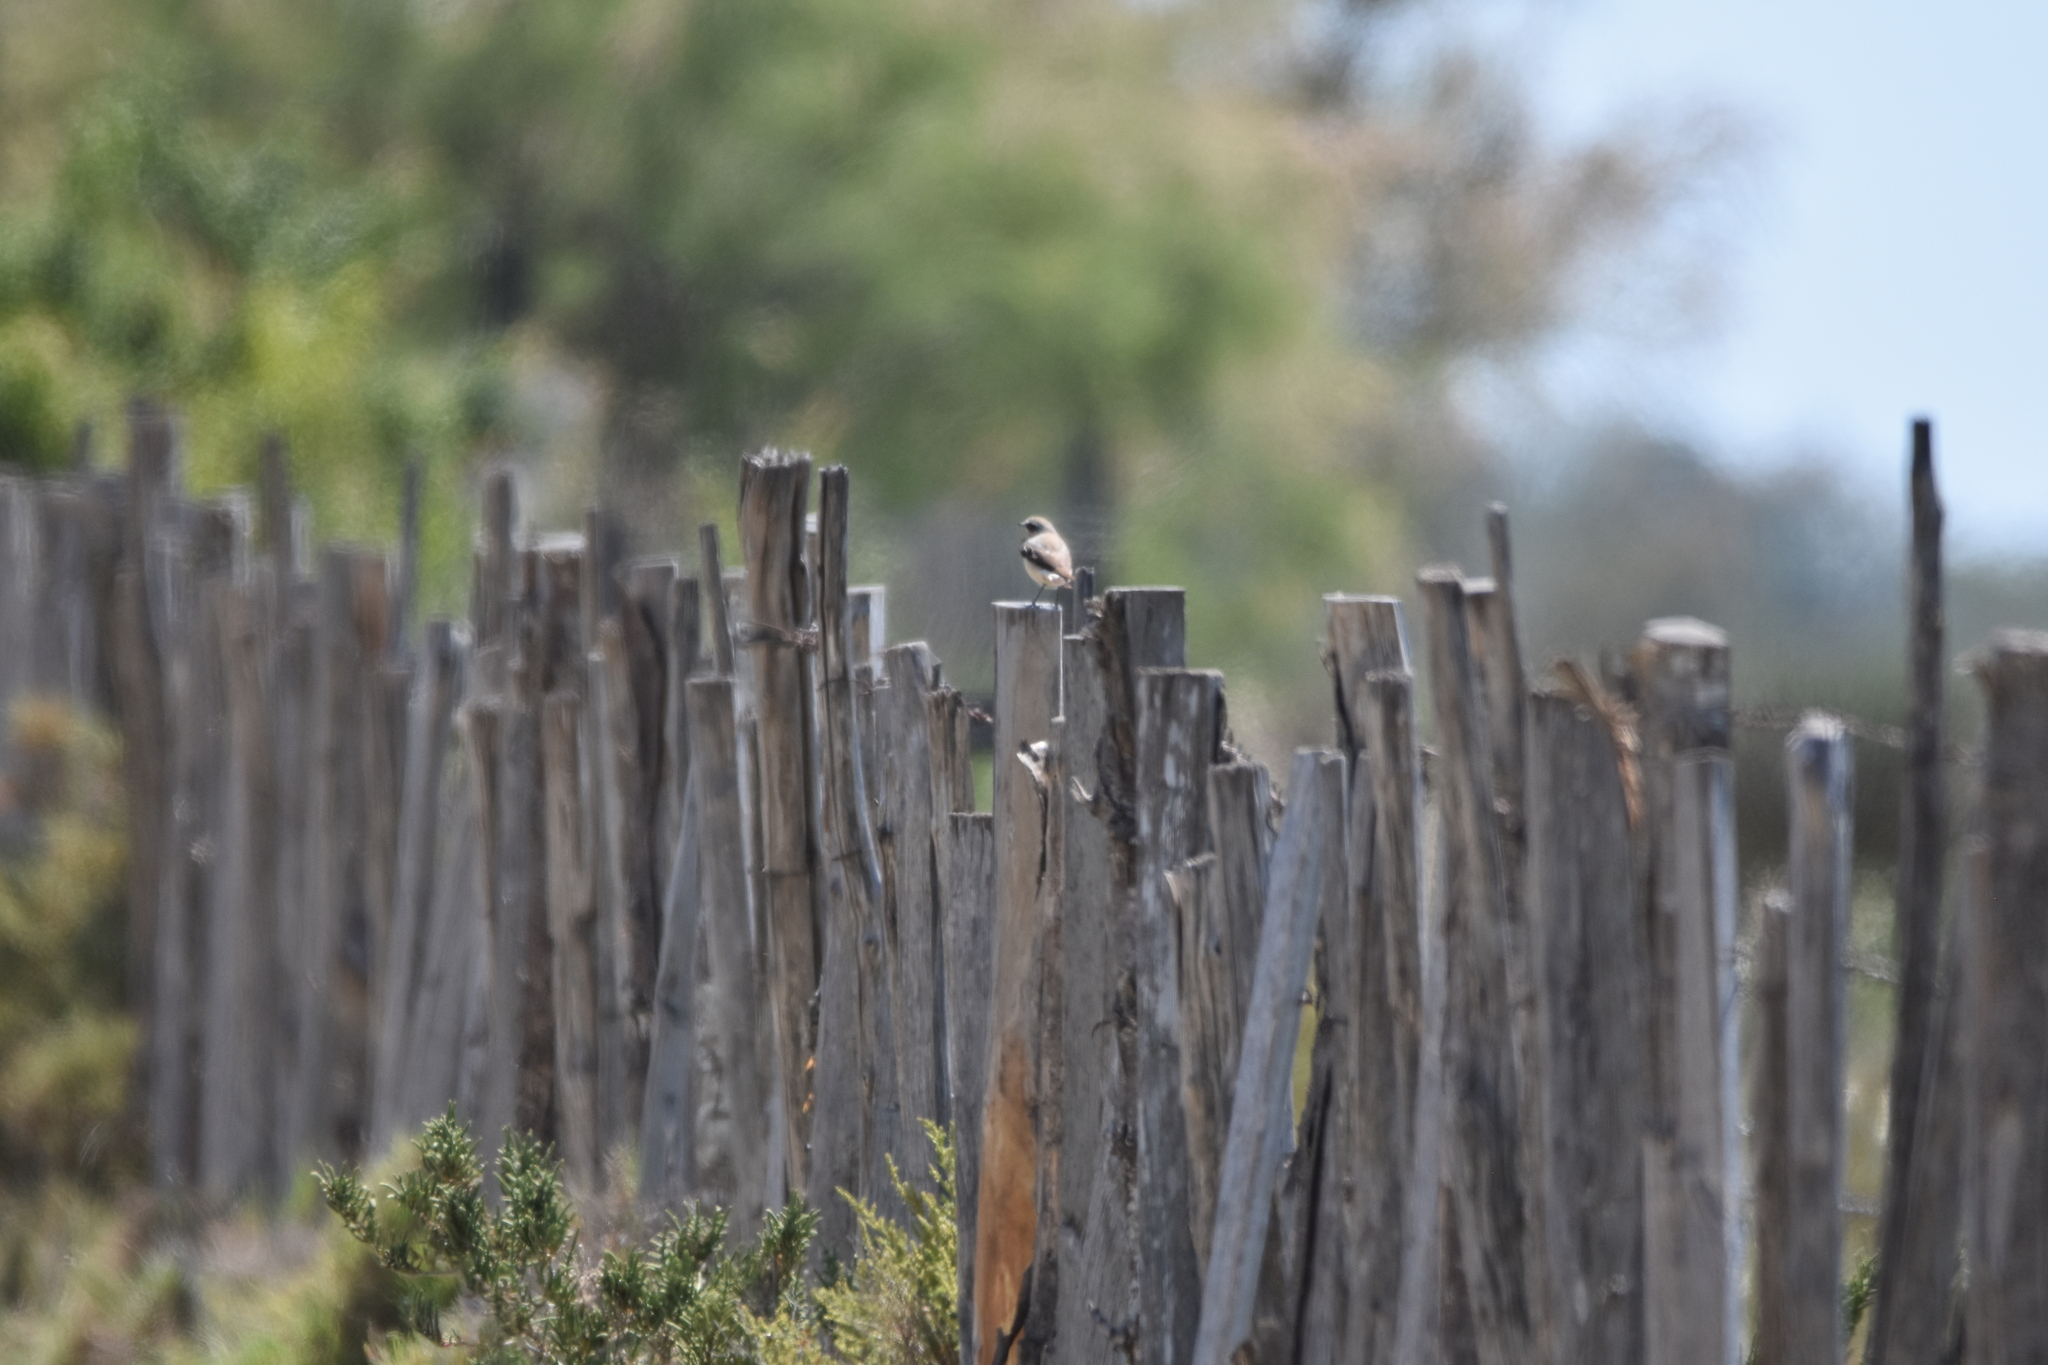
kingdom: Animalia
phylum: Chordata
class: Aves
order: Passeriformes
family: Muscicapidae
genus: Oenanthe
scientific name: Oenanthe oenanthe
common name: Northern wheatear
